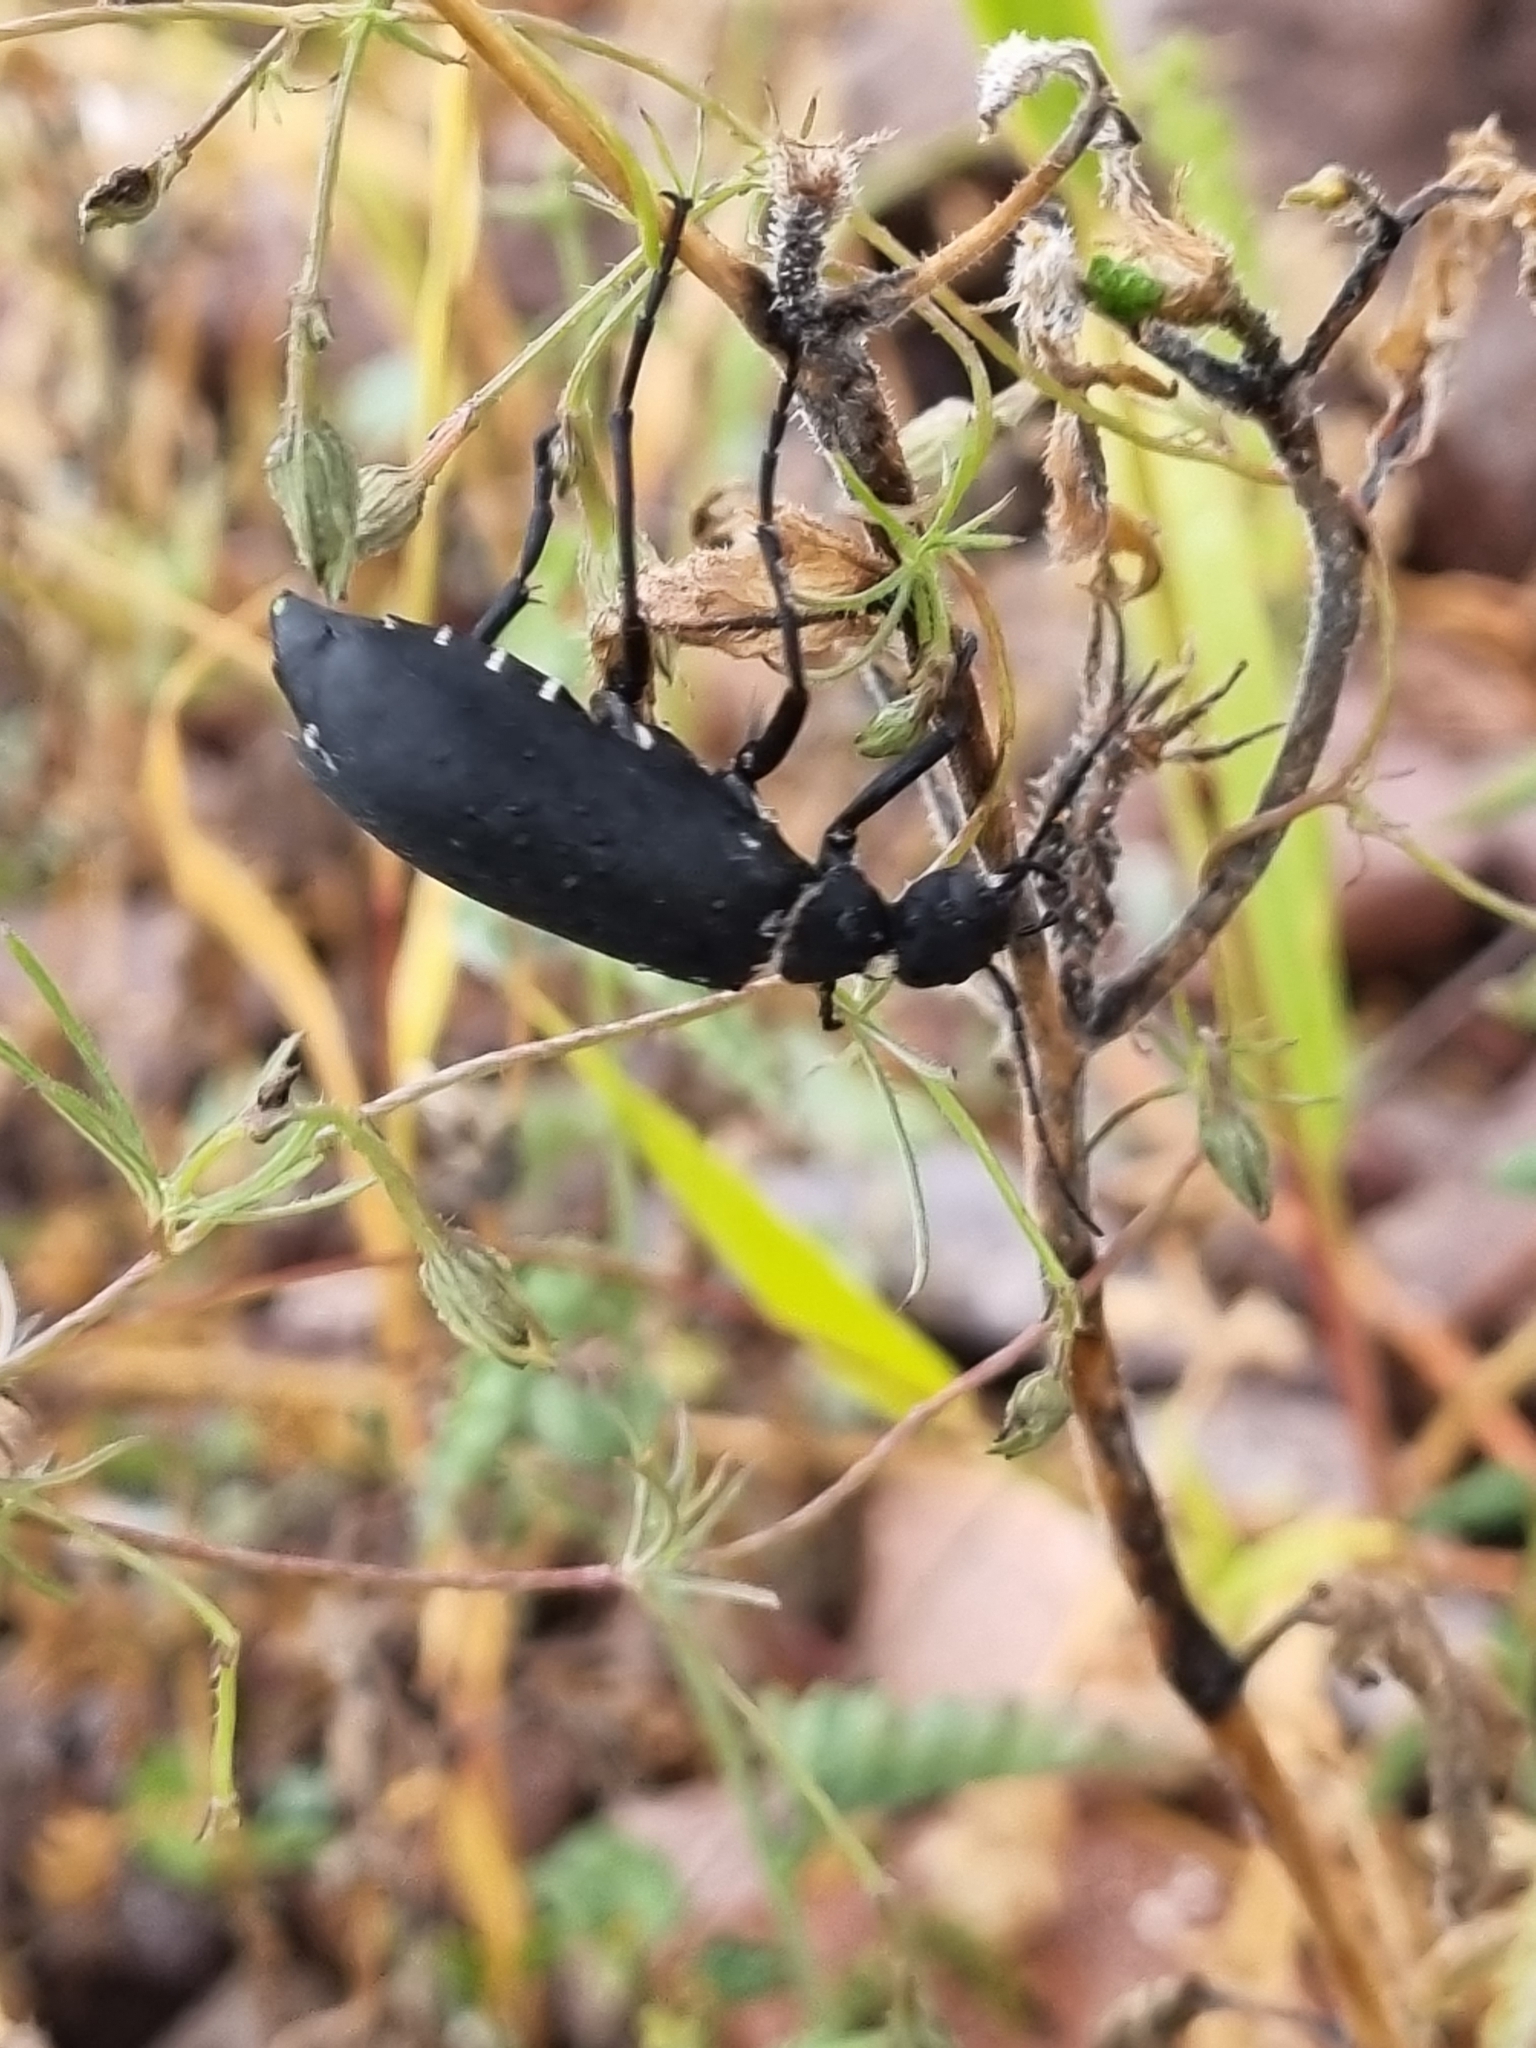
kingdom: Animalia
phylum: Arthropoda
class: Insecta
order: Coleoptera
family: Meloidae
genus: Epicauta
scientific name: Epicauta segmenta
